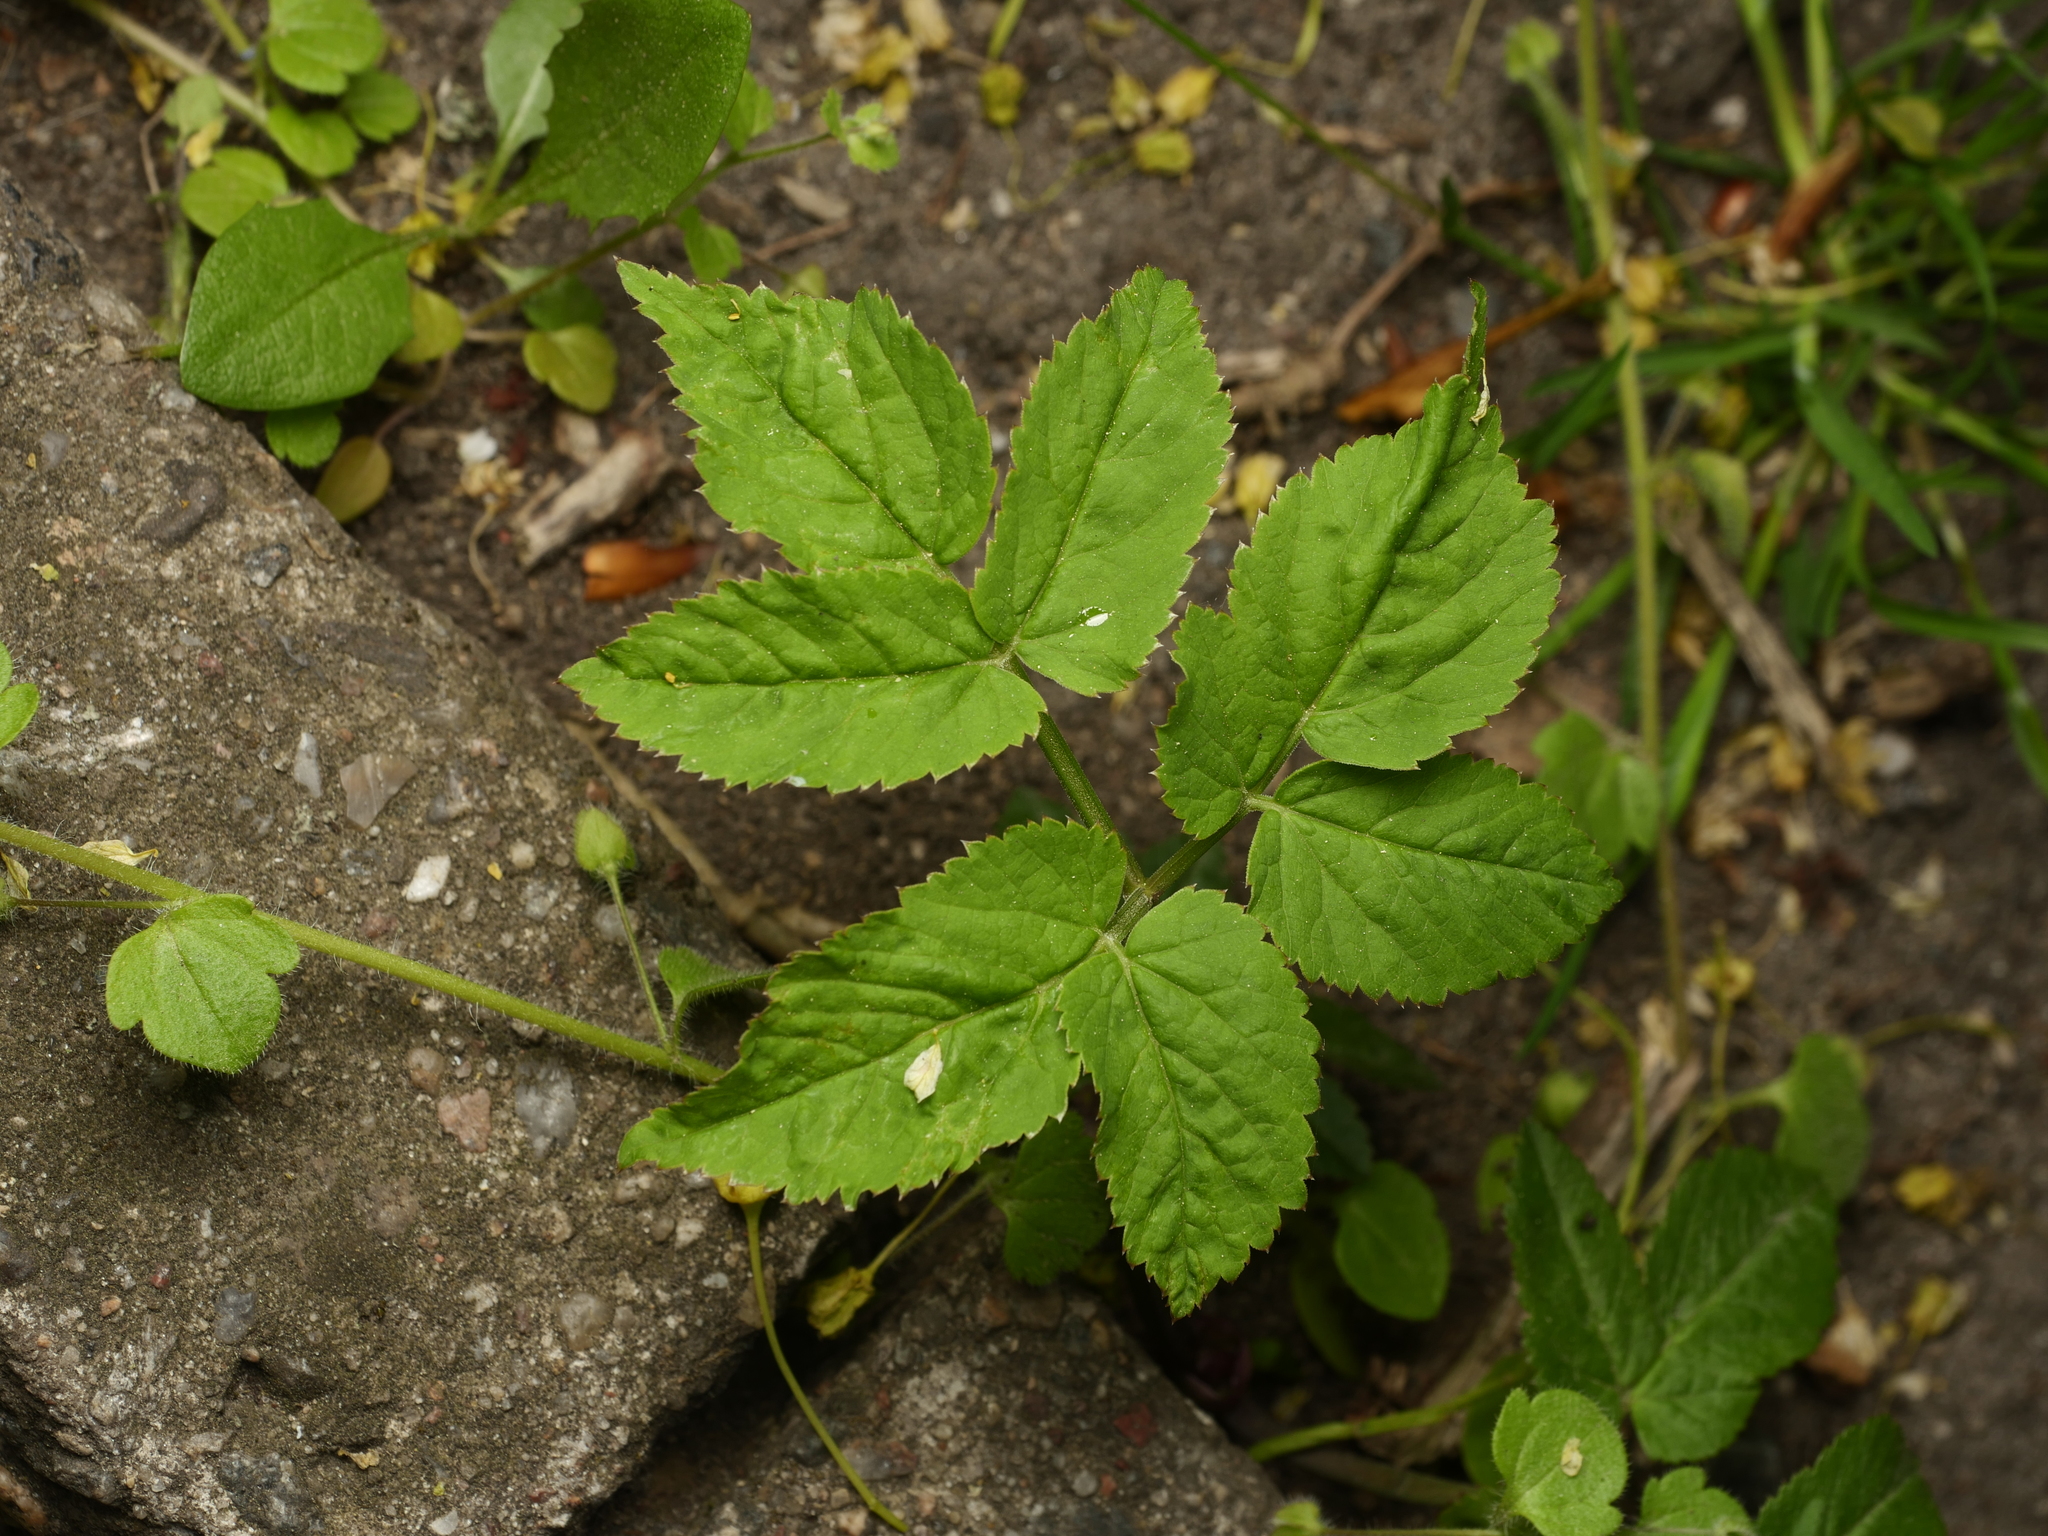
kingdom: Plantae
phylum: Tracheophyta
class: Magnoliopsida
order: Apiales
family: Apiaceae
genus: Aegopodium
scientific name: Aegopodium podagraria
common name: Ground-elder
